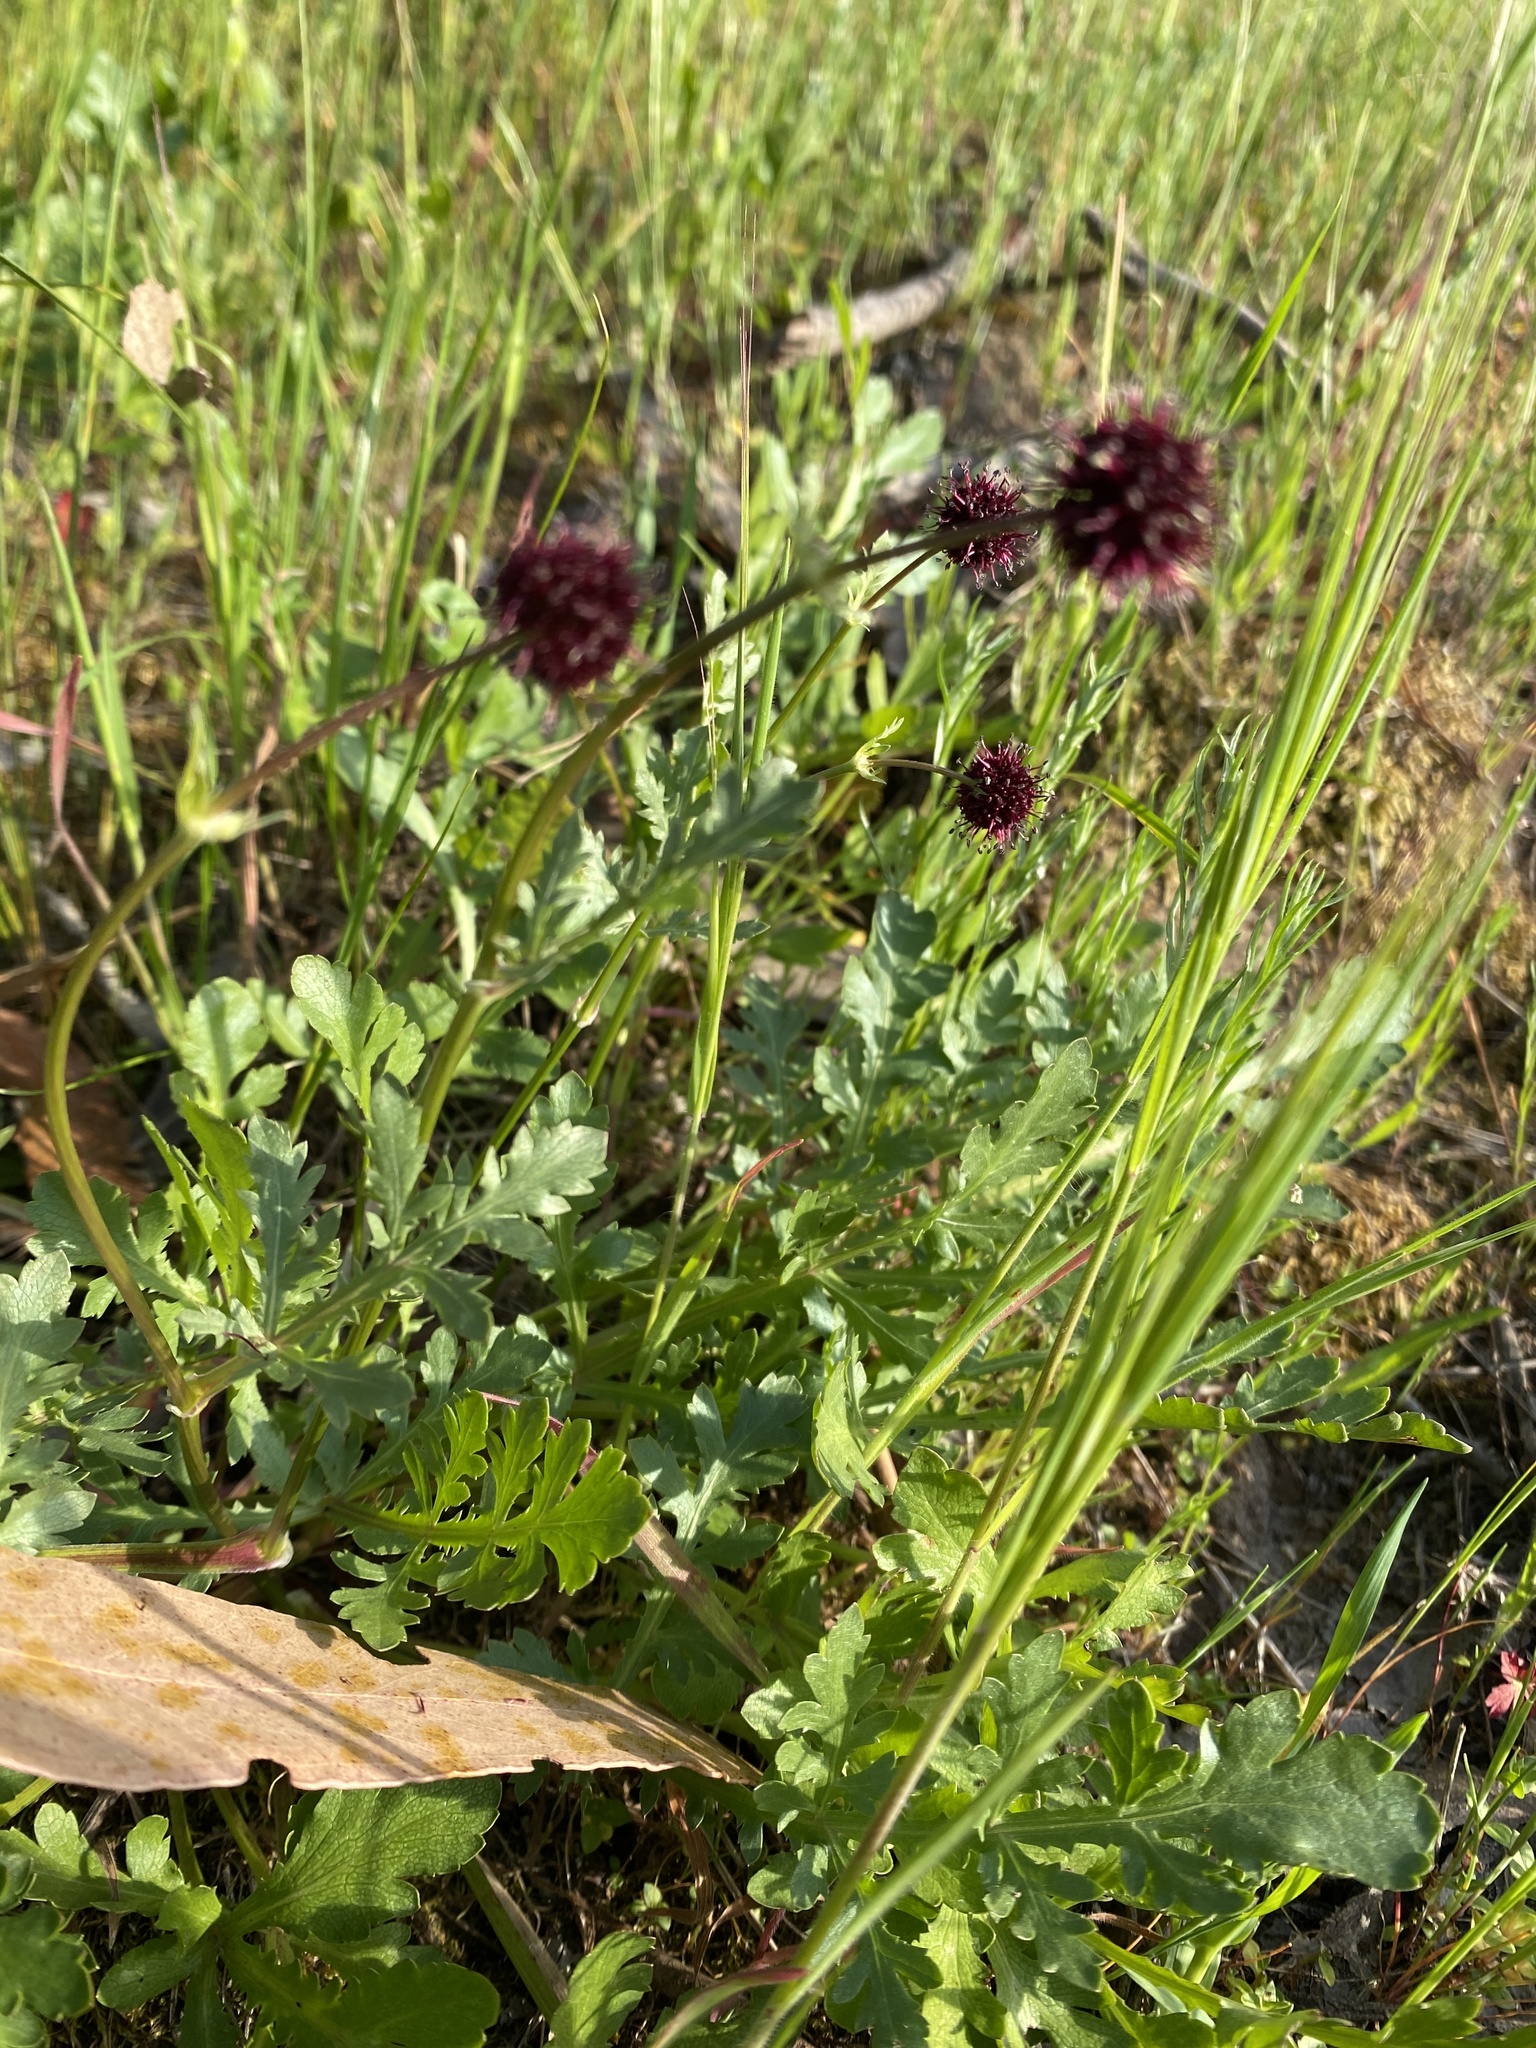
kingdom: Plantae
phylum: Tracheophyta
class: Magnoliopsida
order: Apiales
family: Apiaceae
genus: Sanicula
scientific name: Sanicula bipinnatifida
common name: Shoe-buttons
